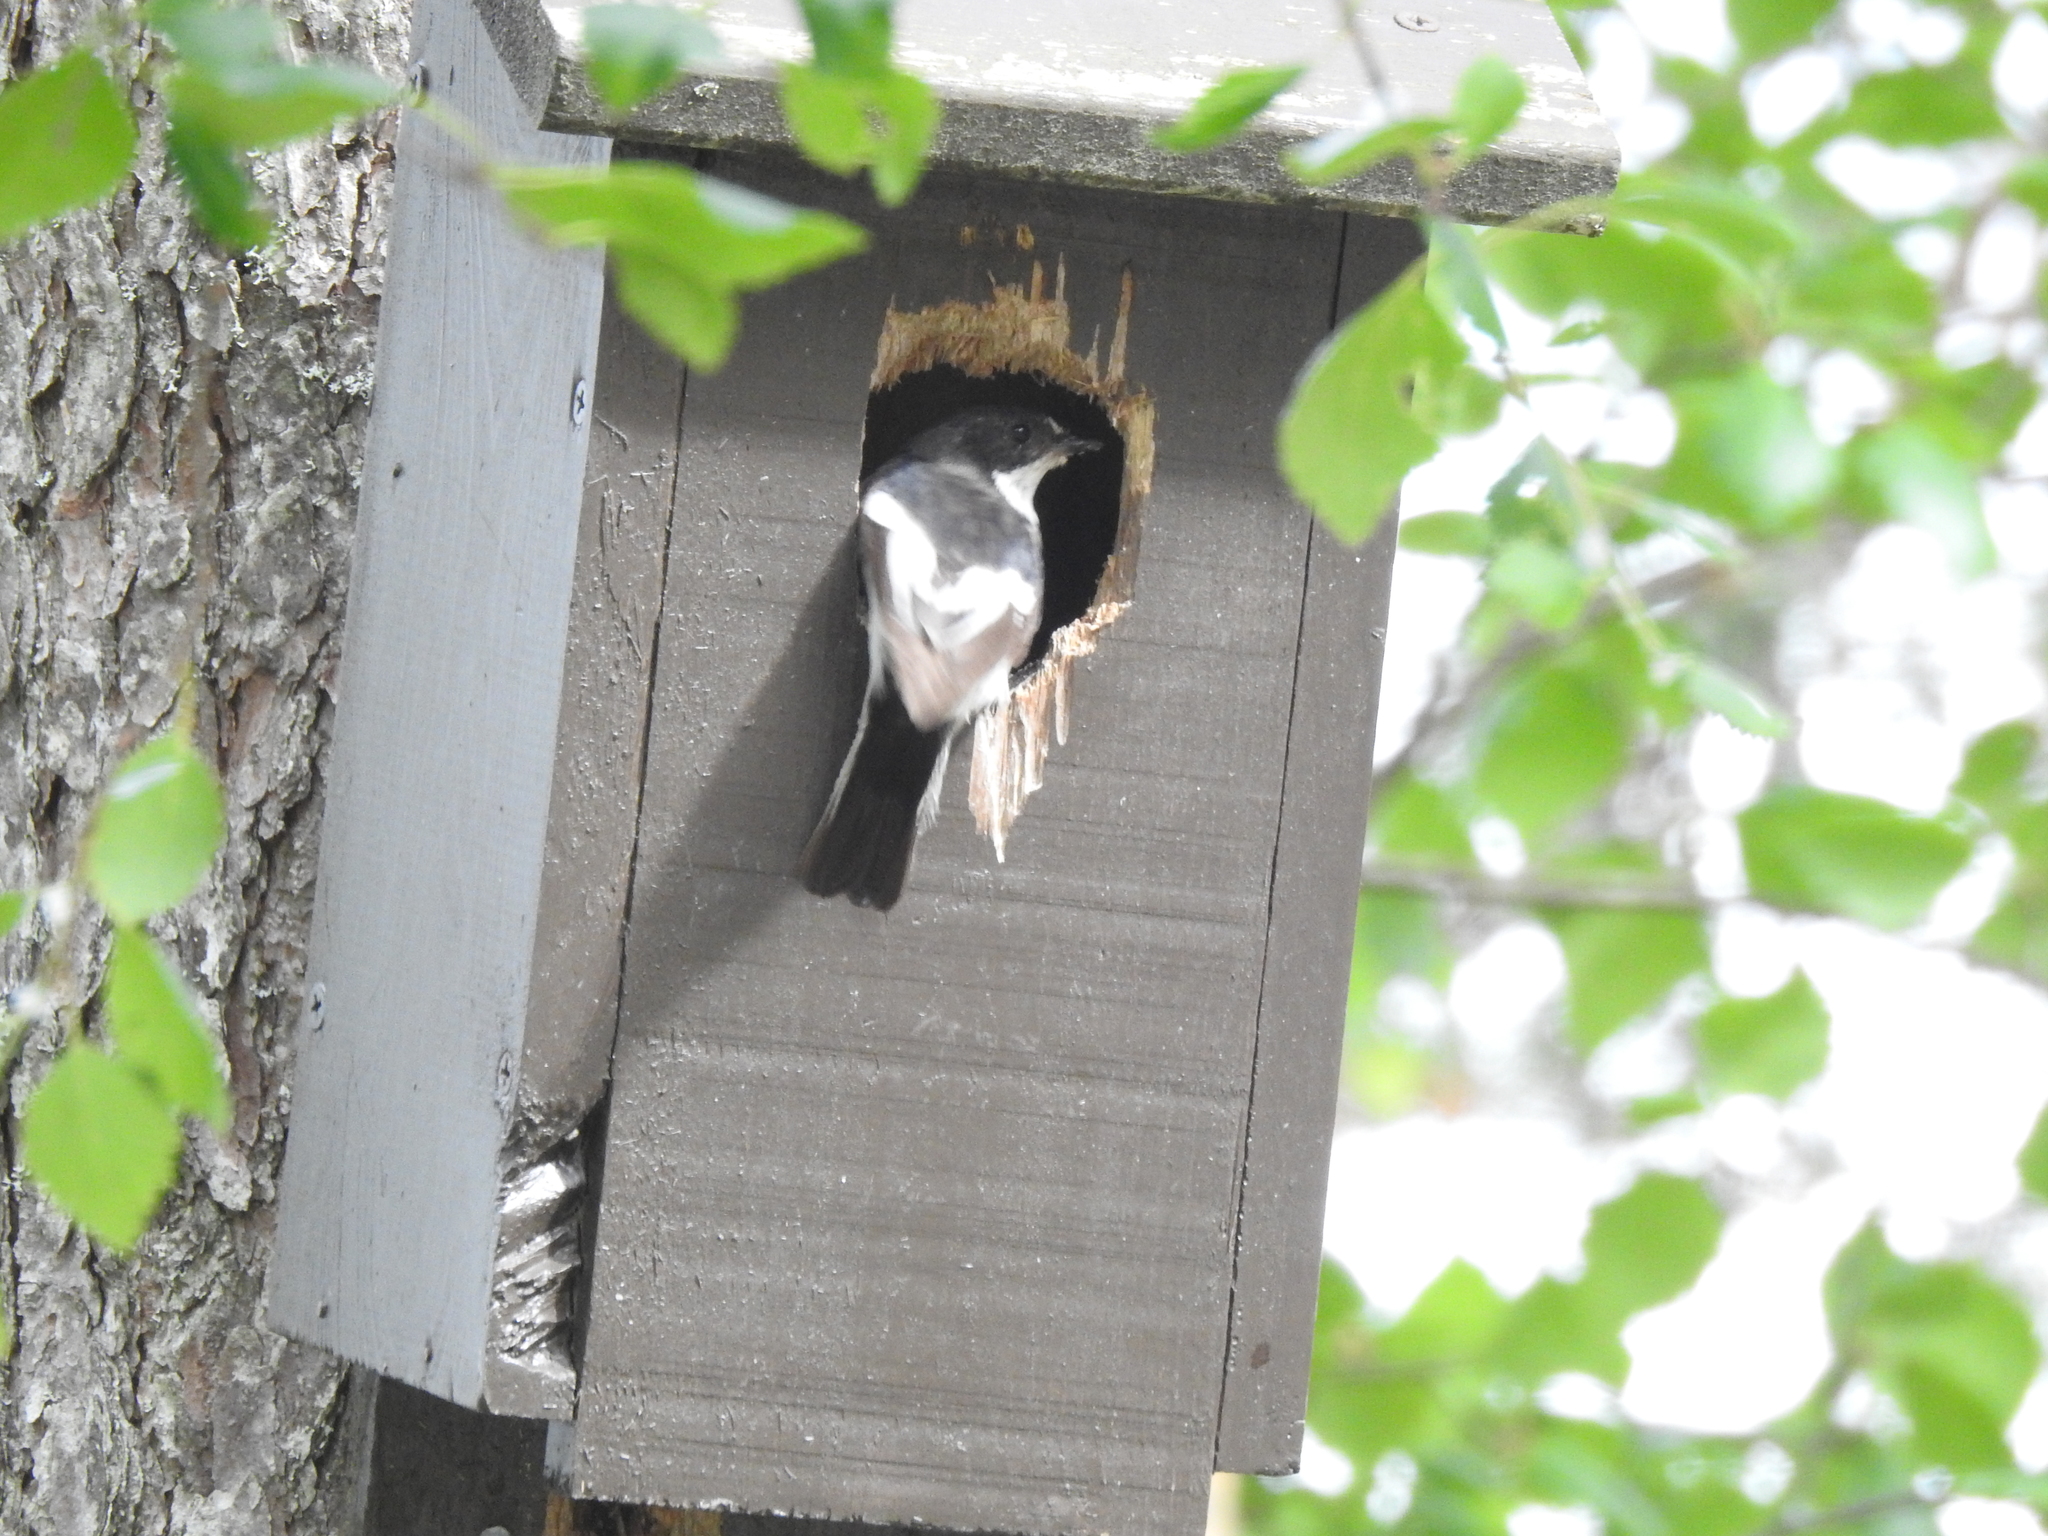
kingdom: Animalia
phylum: Chordata
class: Aves
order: Passeriformes
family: Muscicapidae
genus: Ficedula
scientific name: Ficedula hypoleuca
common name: European pied flycatcher
